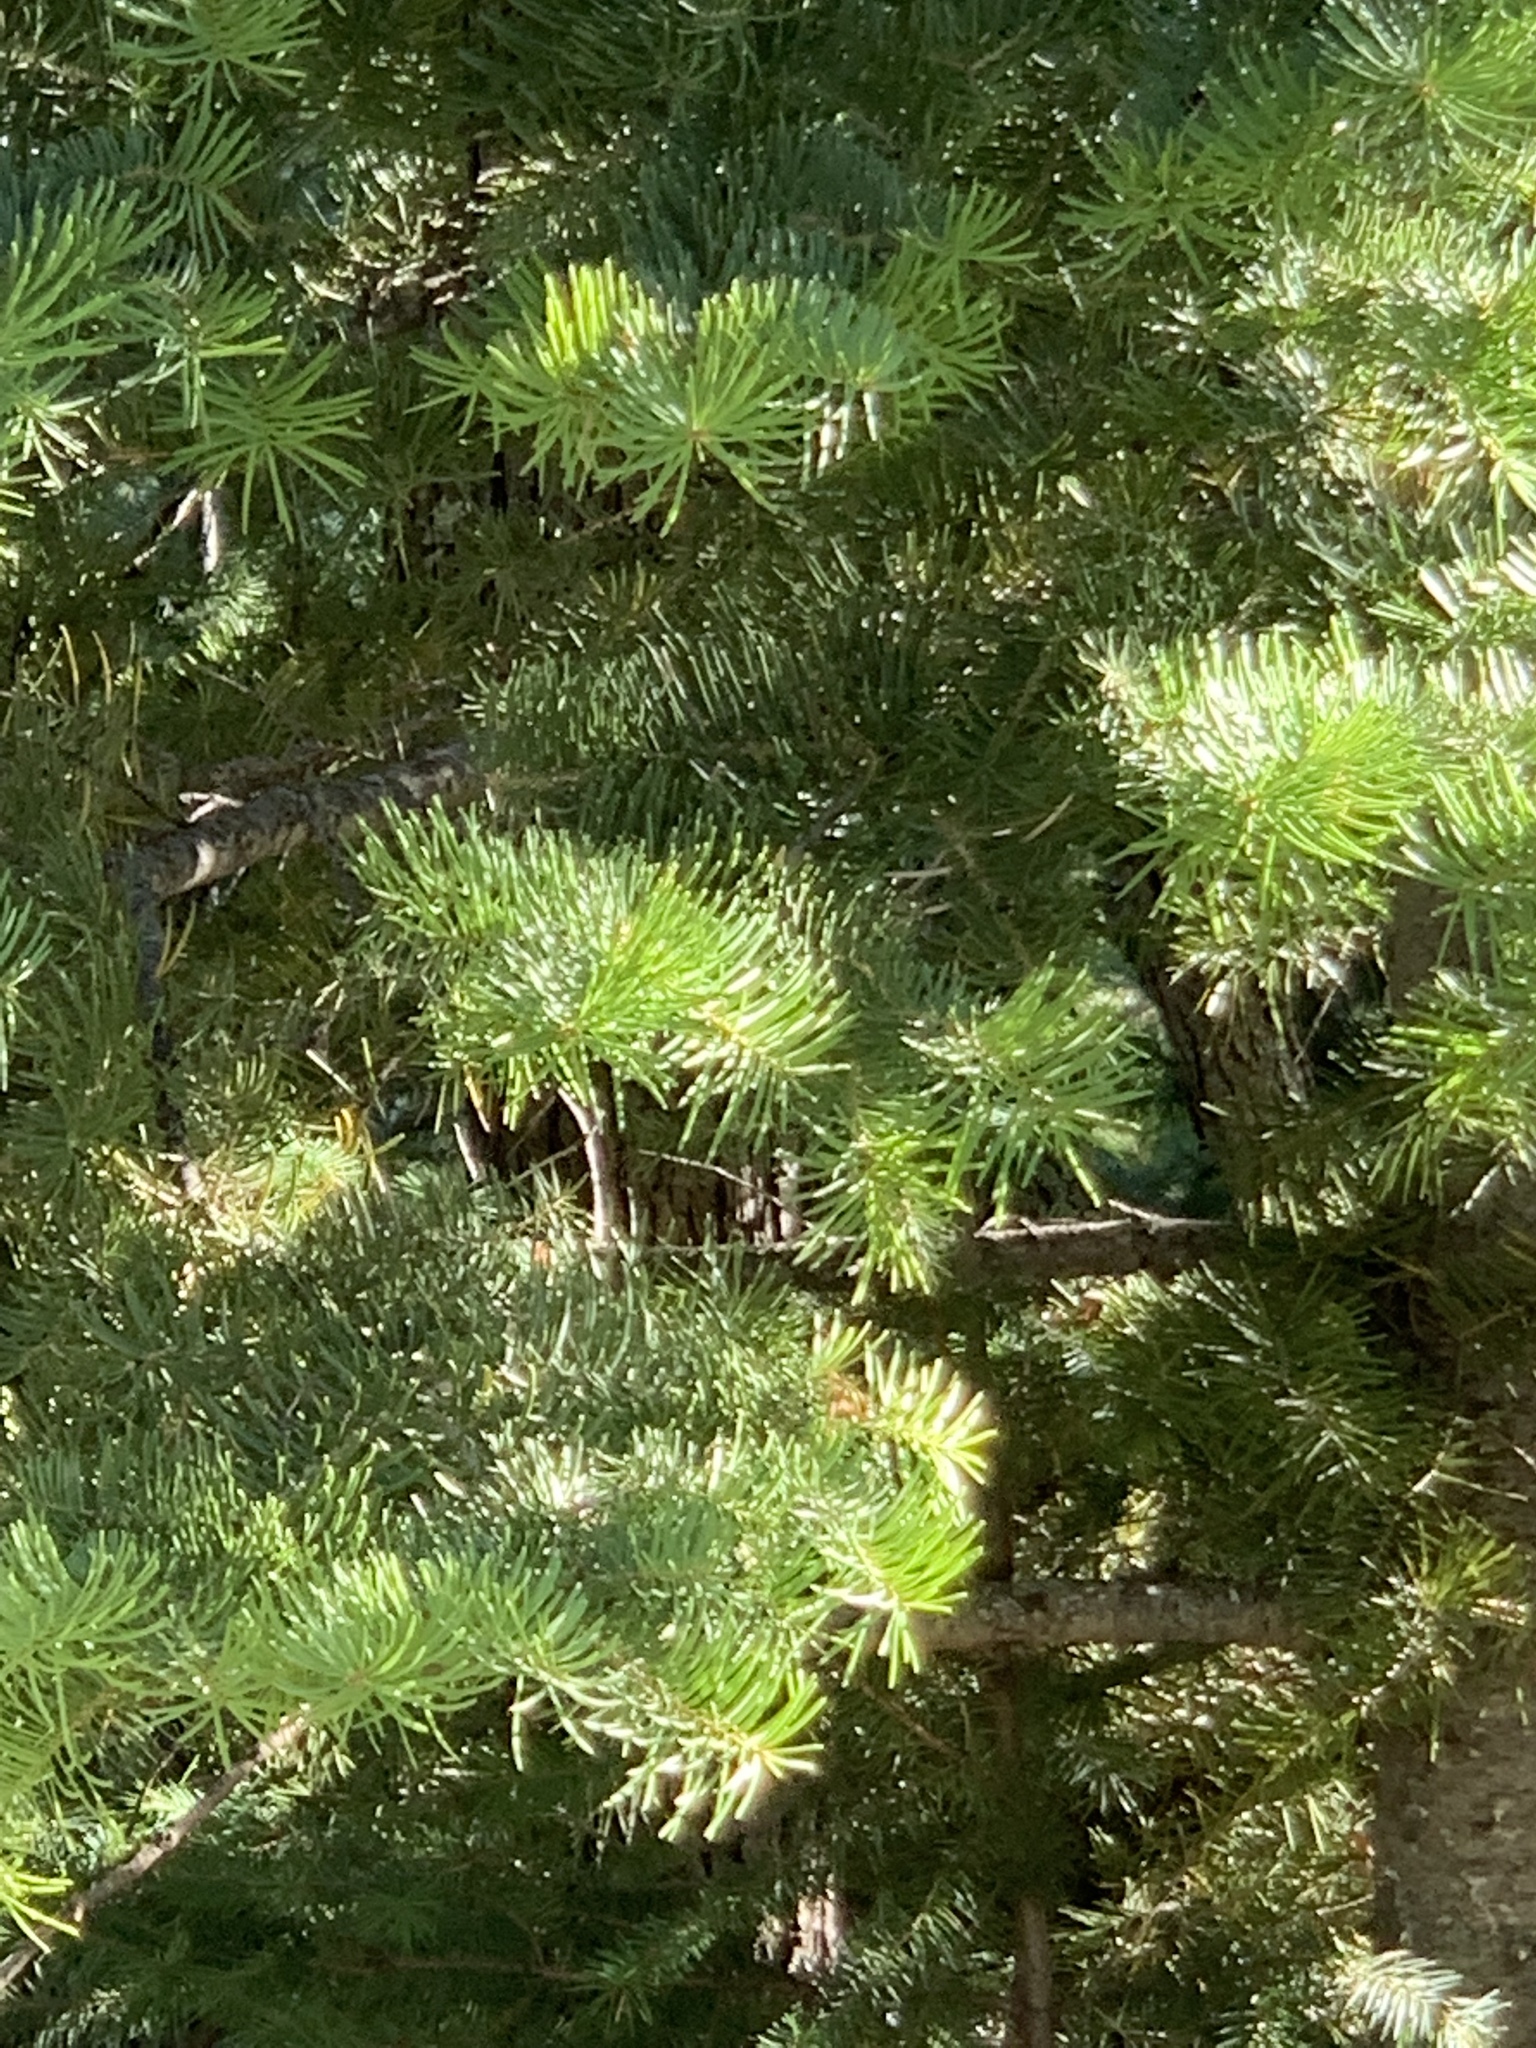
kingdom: Plantae
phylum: Tracheophyta
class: Pinopsida
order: Pinales
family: Pinaceae
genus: Abies
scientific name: Abies concolor
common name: Colorado fir
